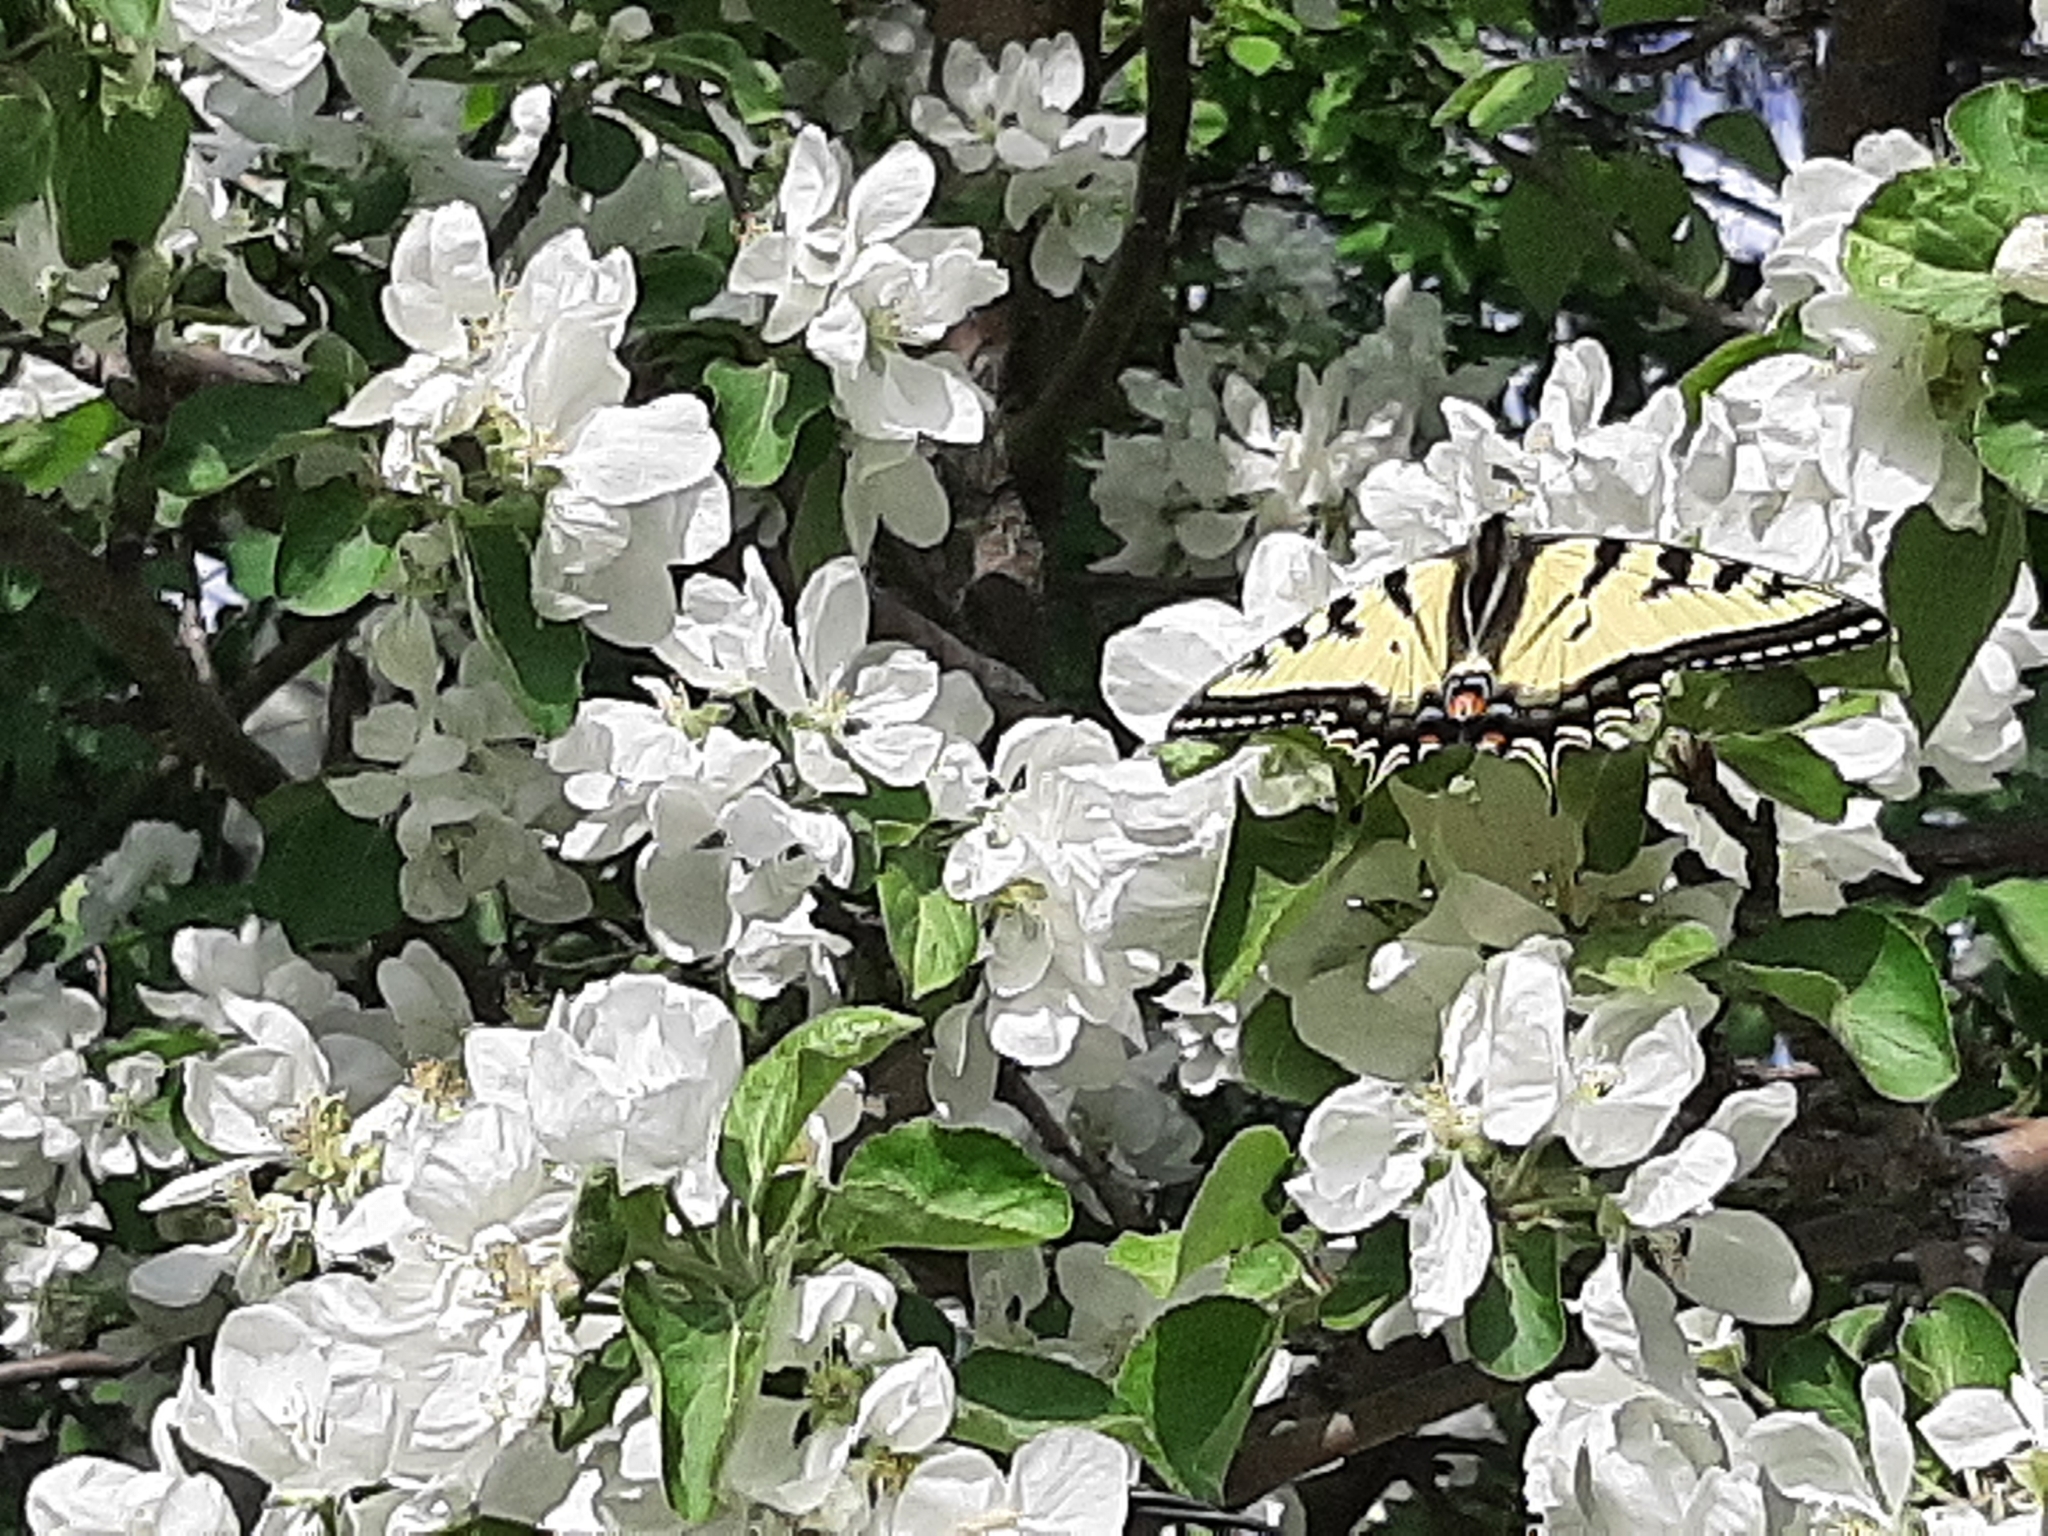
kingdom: Animalia
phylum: Arthropoda
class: Insecta
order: Lepidoptera
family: Papilionidae
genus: Papilio
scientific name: Papilio canadensis
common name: Canadian tiger swallowtail
